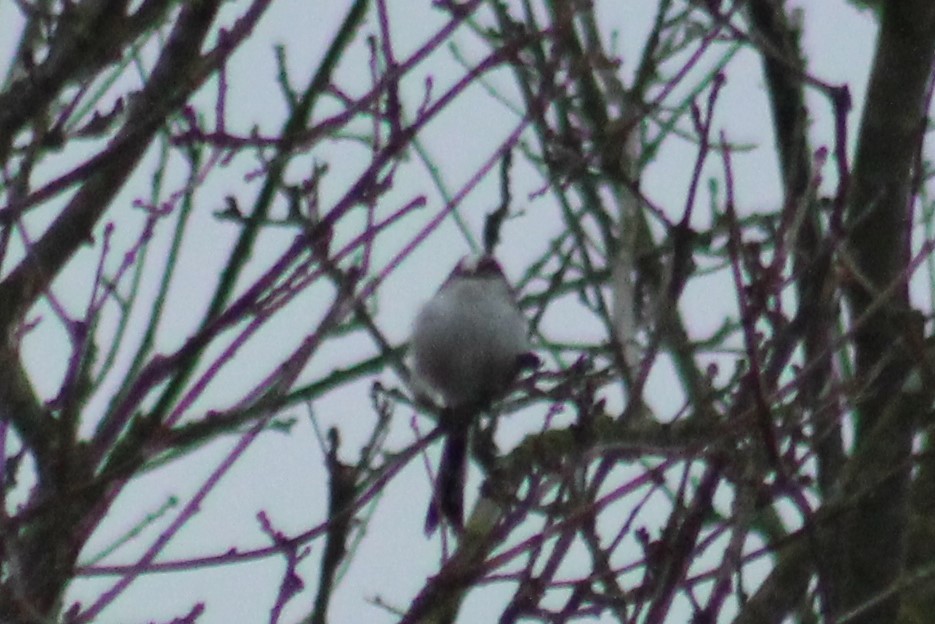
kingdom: Animalia
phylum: Chordata
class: Aves
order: Passeriformes
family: Aegithalidae
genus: Aegithalos
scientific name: Aegithalos caudatus
